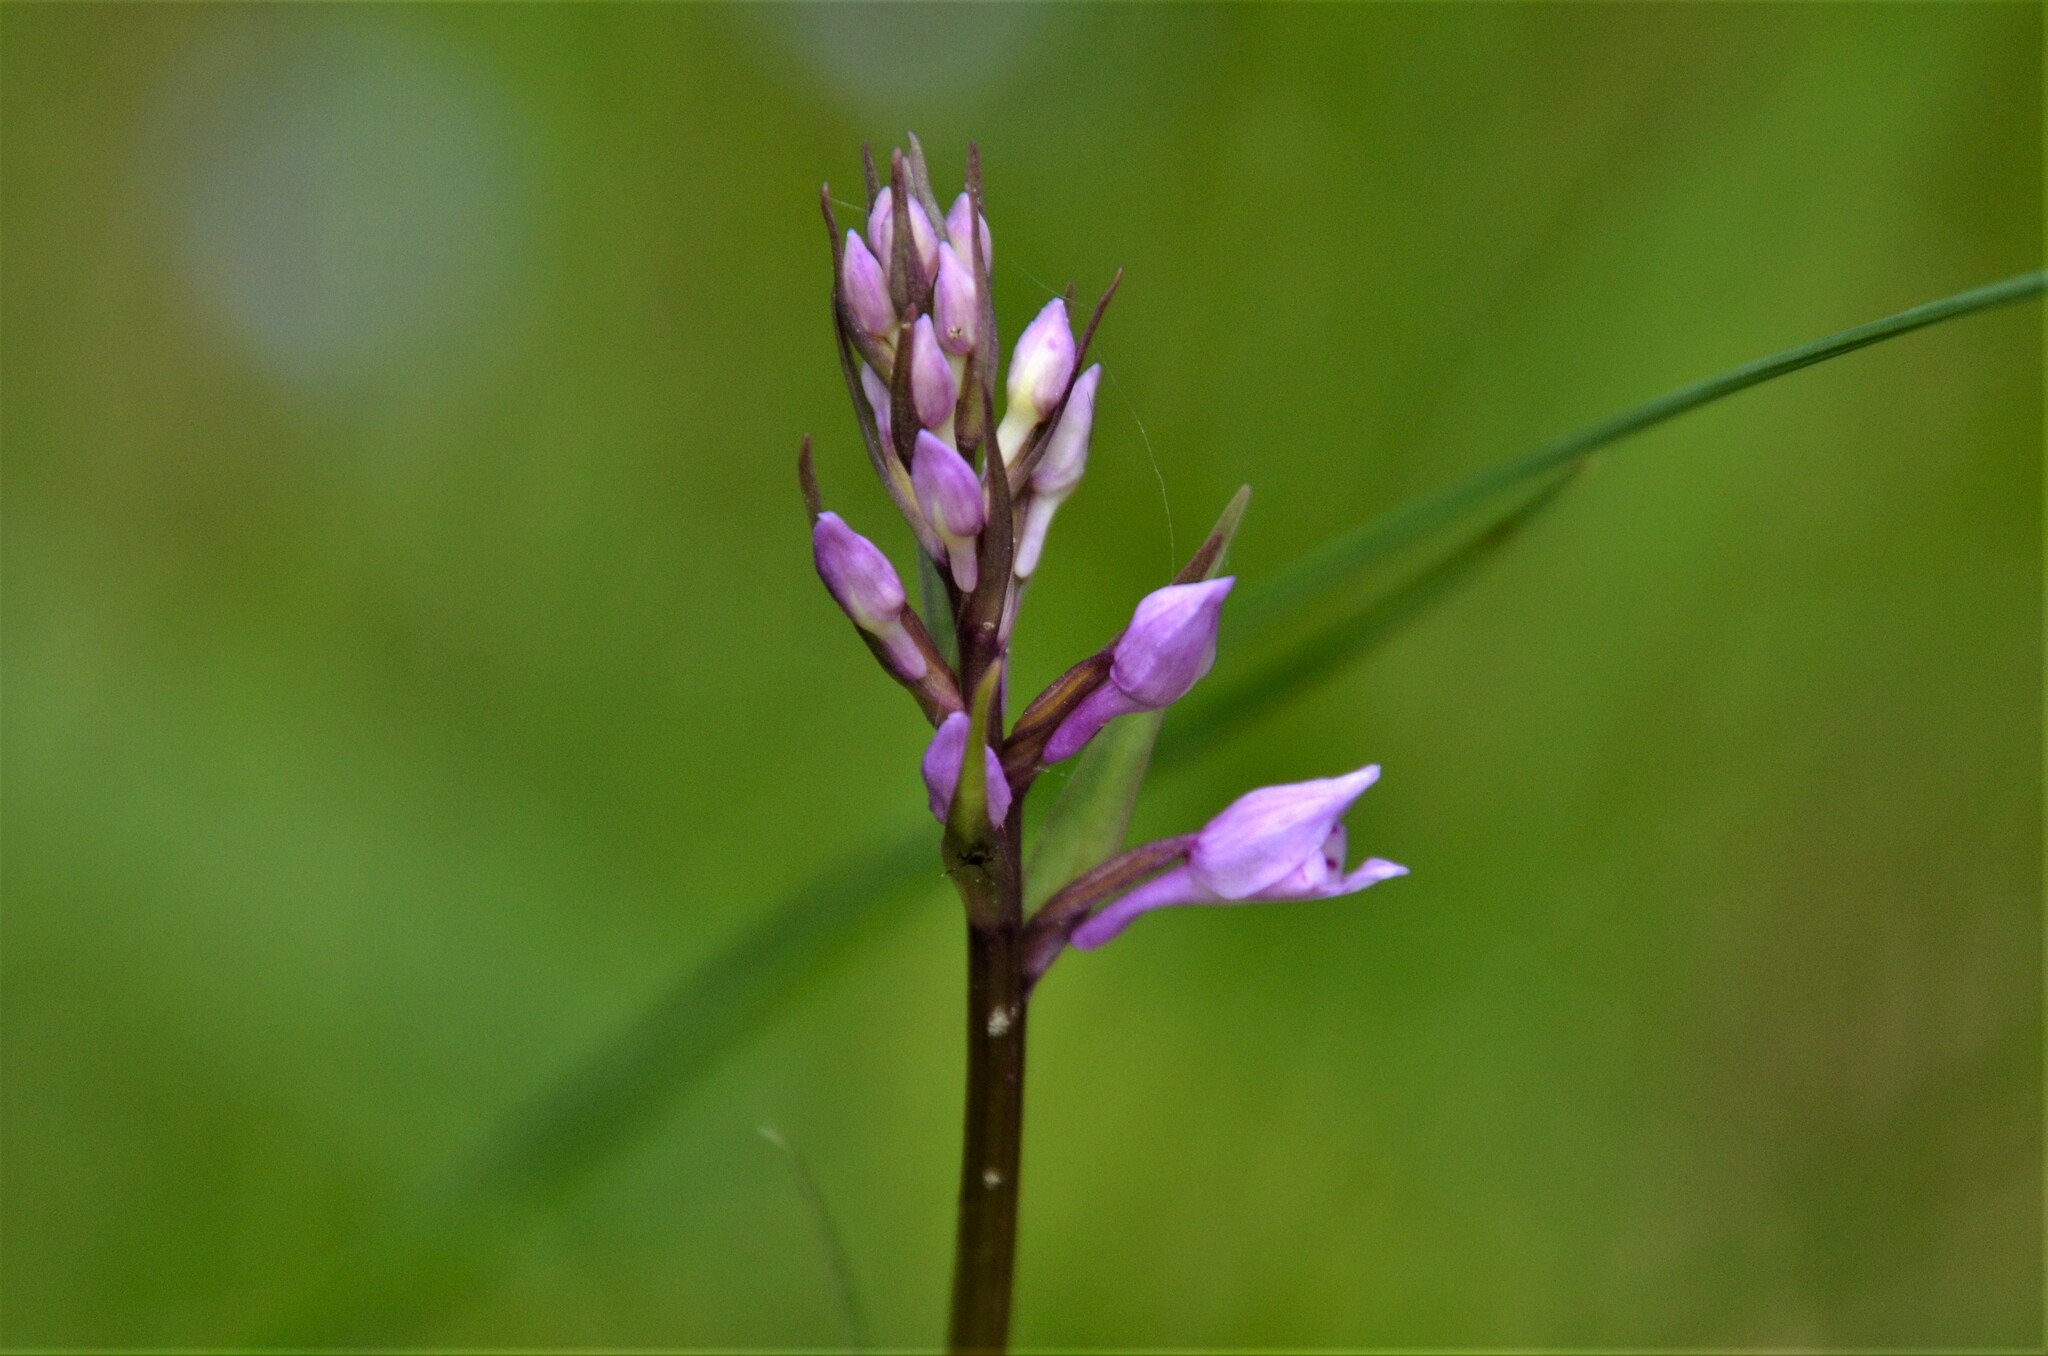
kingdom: Plantae
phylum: Tracheophyta
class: Liliopsida
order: Asparagales
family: Orchidaceae
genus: Dactylorhiza
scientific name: Dactylorhiza maculata
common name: Heath spotted-orchid
